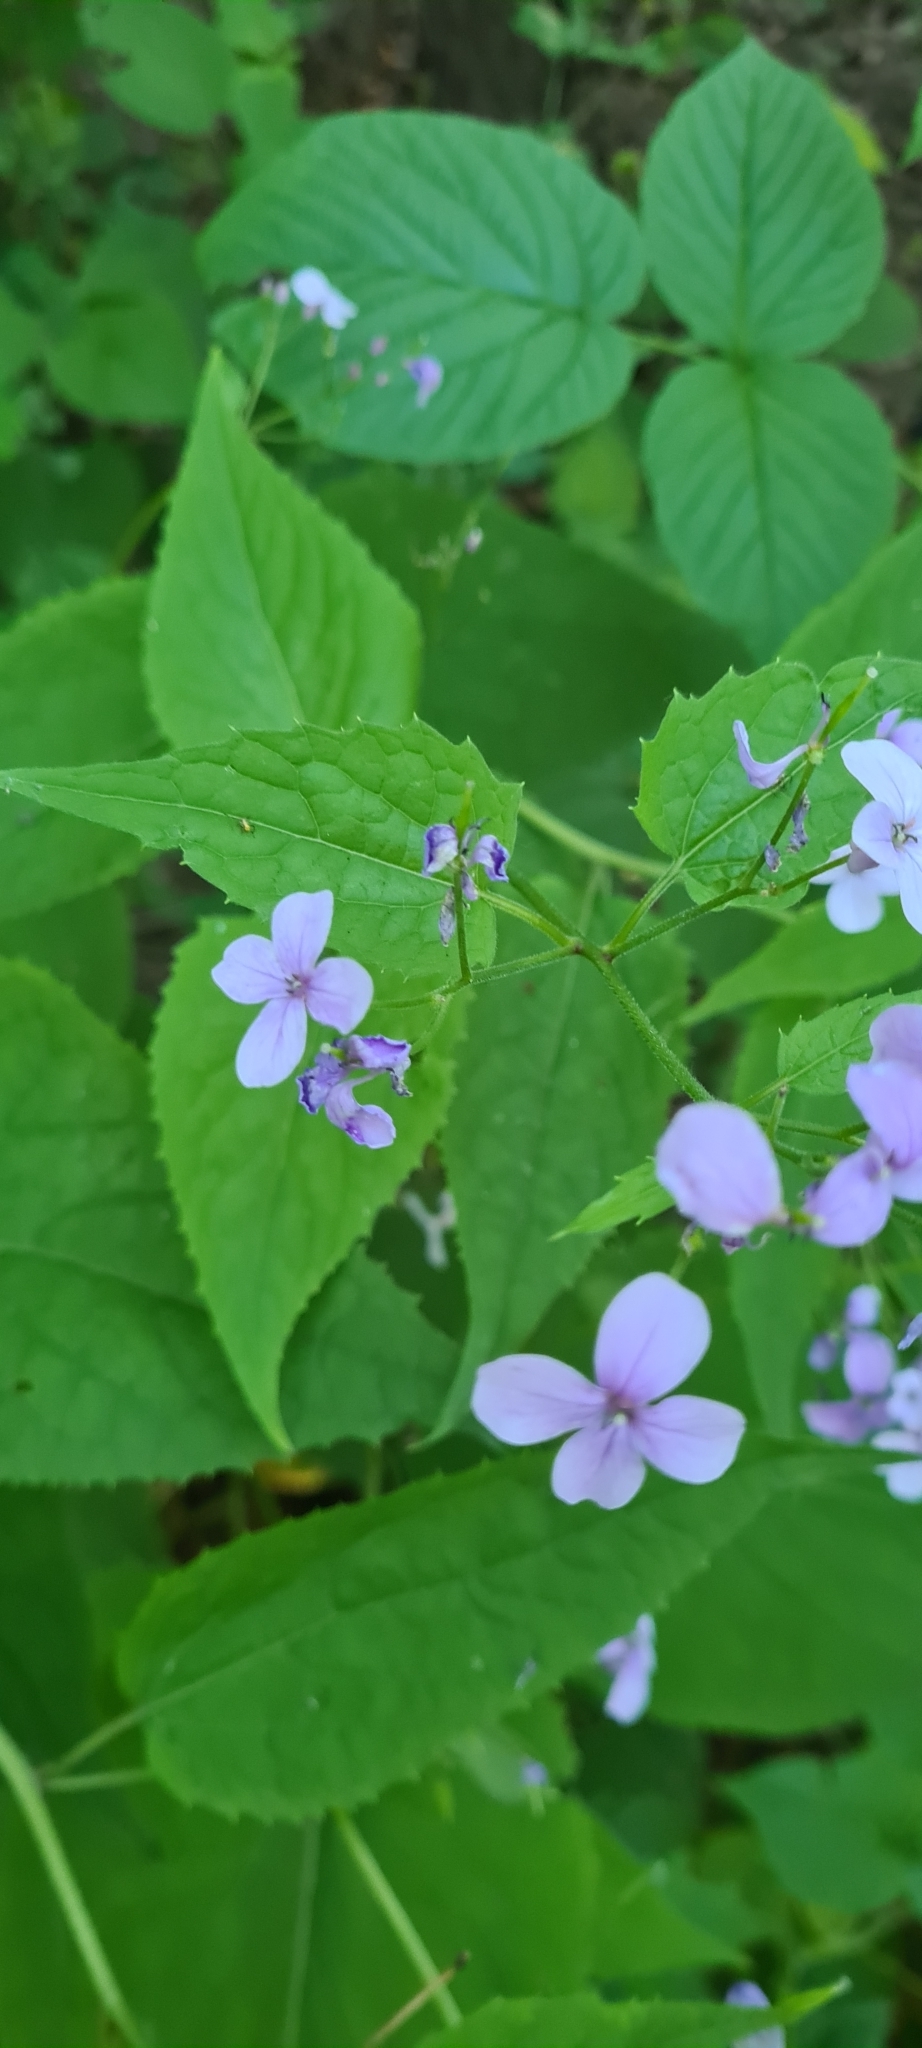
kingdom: Plantae
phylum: Tracheophyta
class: Magnoliopsida
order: Brassicales
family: Brassicaceae
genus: Lunaria
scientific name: Lunaria rediviva
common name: Perennial honesty
